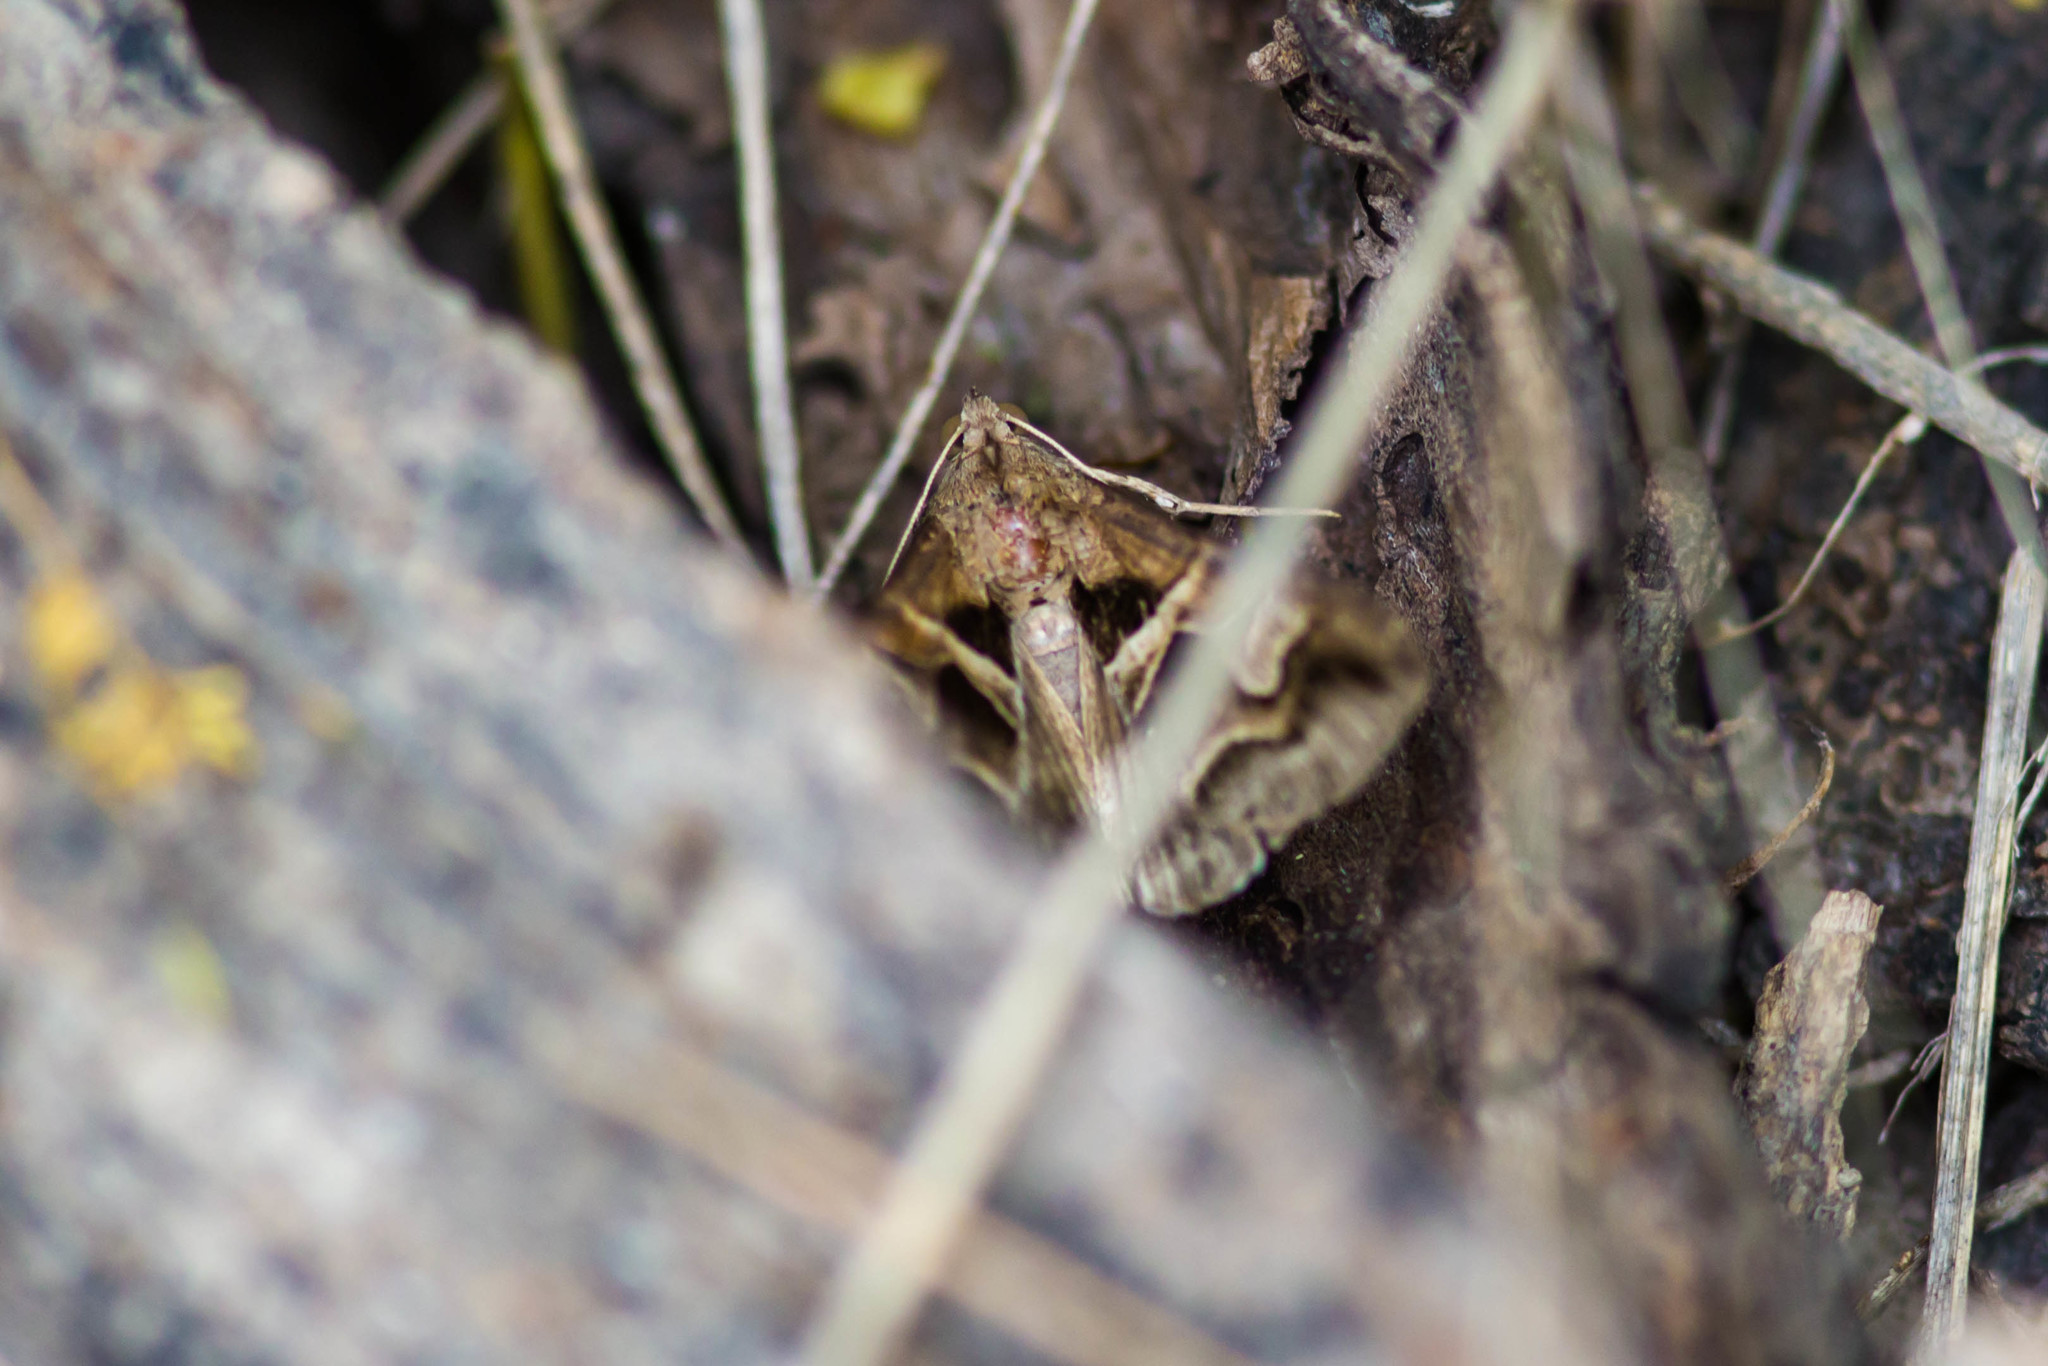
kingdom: Animalia
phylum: Arthropoda
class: Insecta
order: Lepidoptera
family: Erebidae
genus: Melipotis
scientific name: Melipotis cellaris
